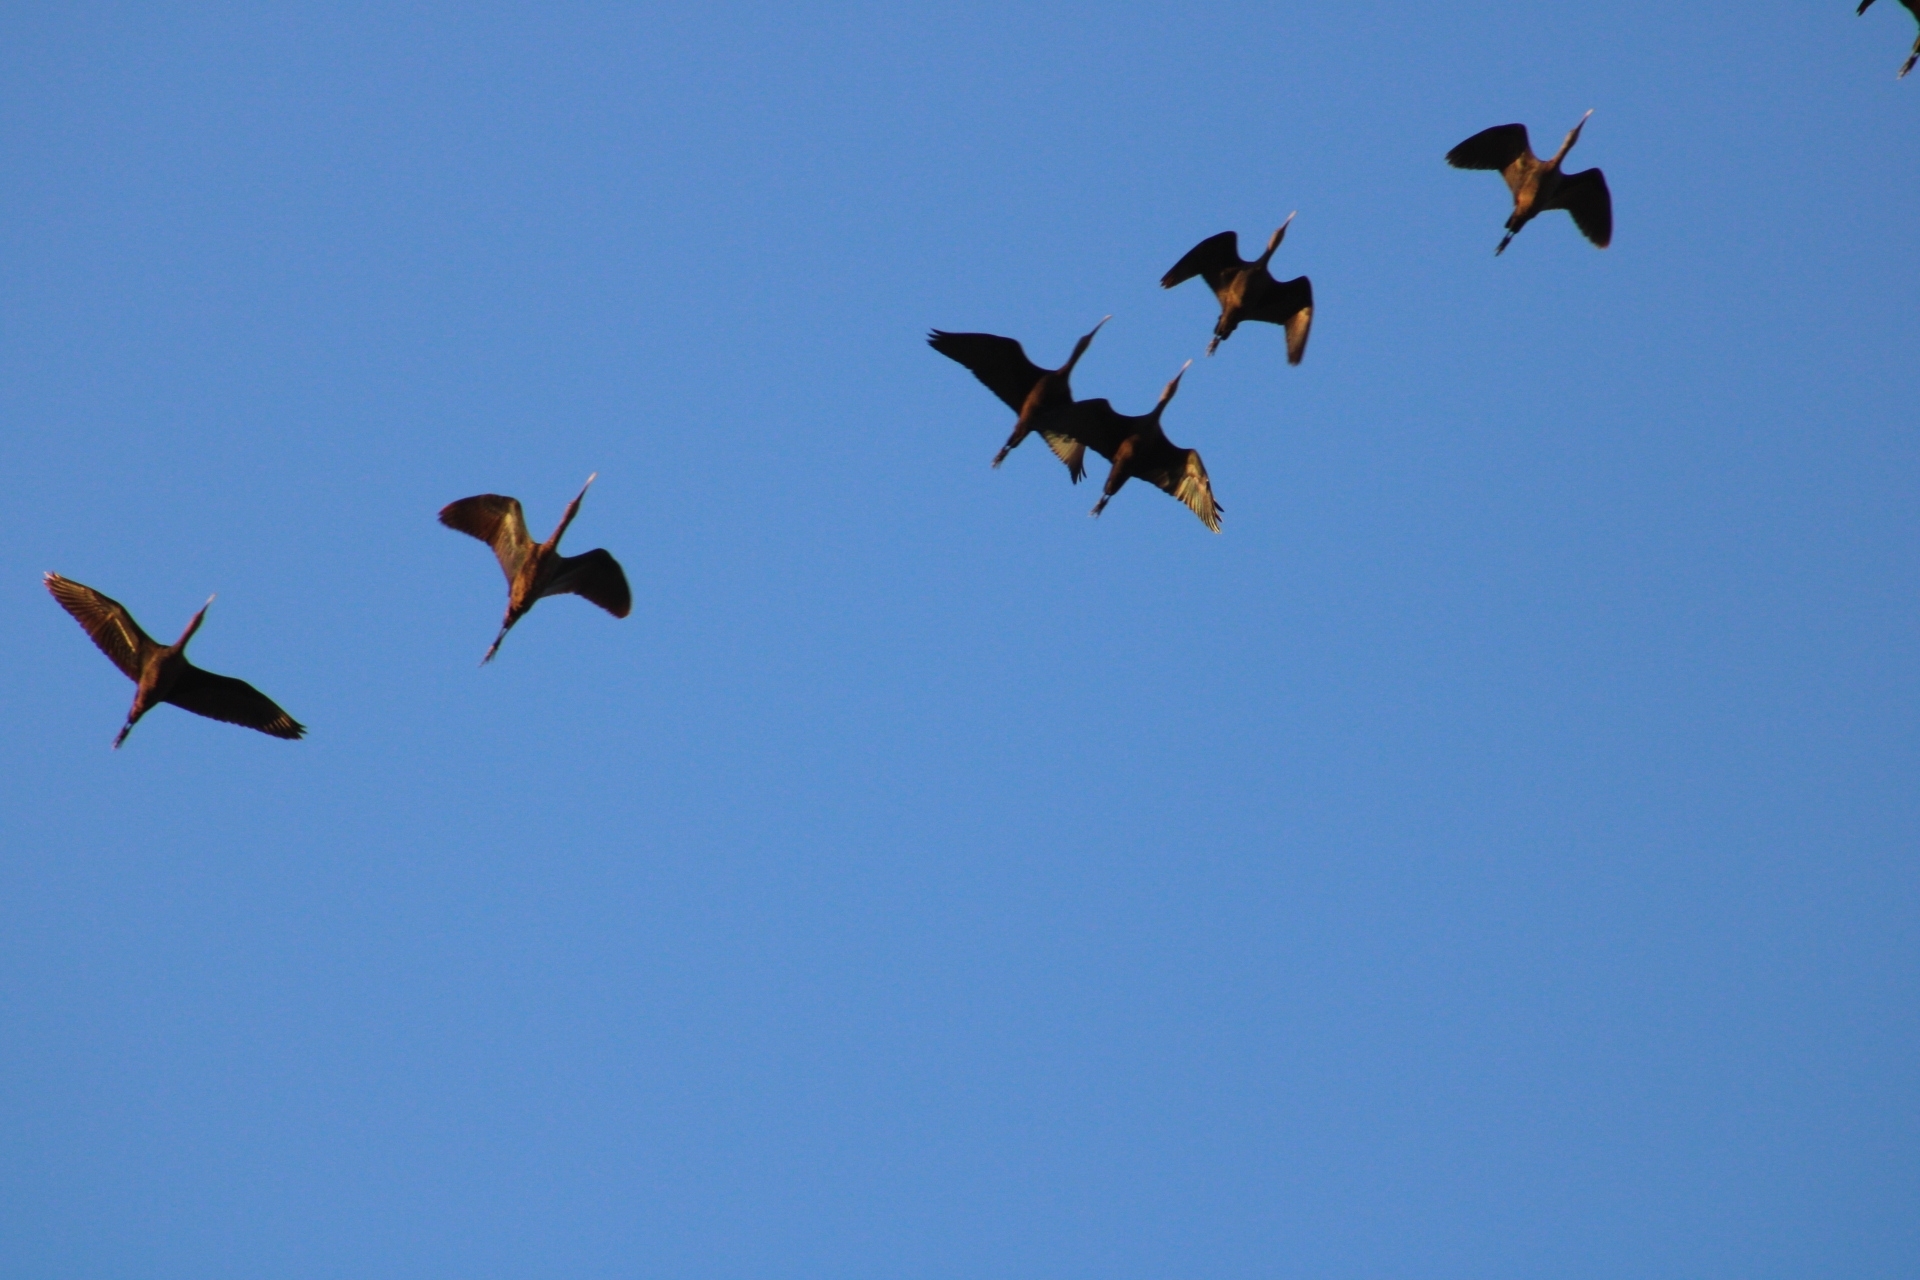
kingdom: Animalia
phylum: Chordata
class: Aves
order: Pelecaniformes
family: Threskiornithidae
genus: Plegadis
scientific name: Plegadis chihi
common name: White-faced ibis
